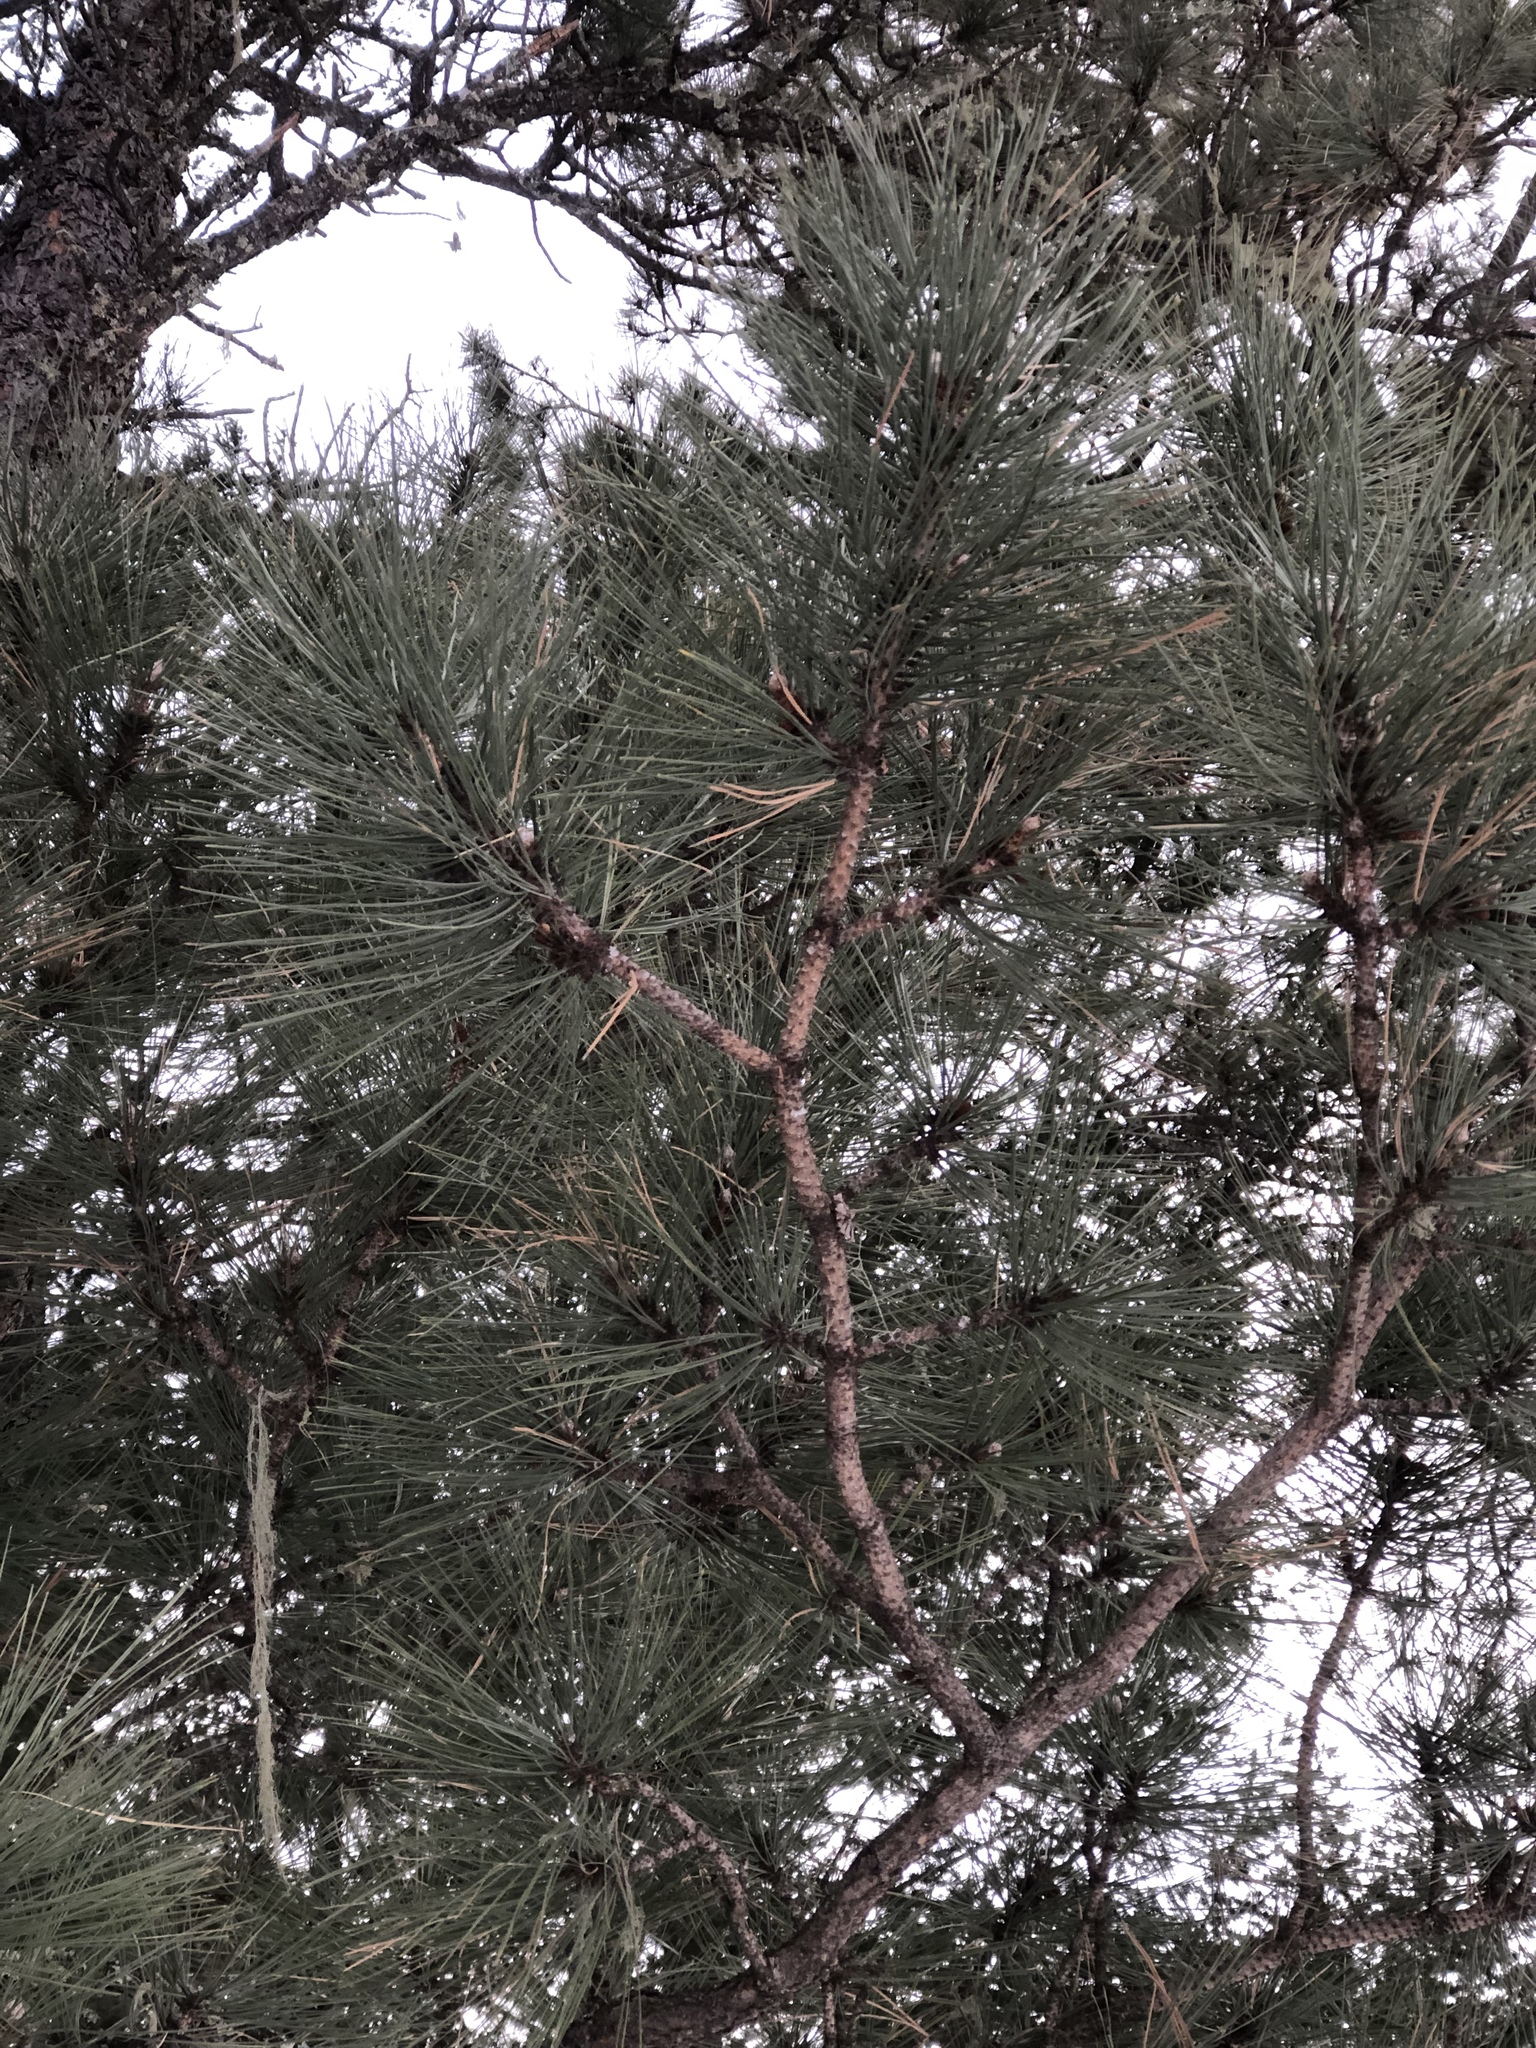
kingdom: Plantae
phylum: Tracheophyta
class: Pinopsida
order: Pinales
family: Pinaceae
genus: Pinus
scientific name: Pinus ponderosa
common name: Western yellow-pine
